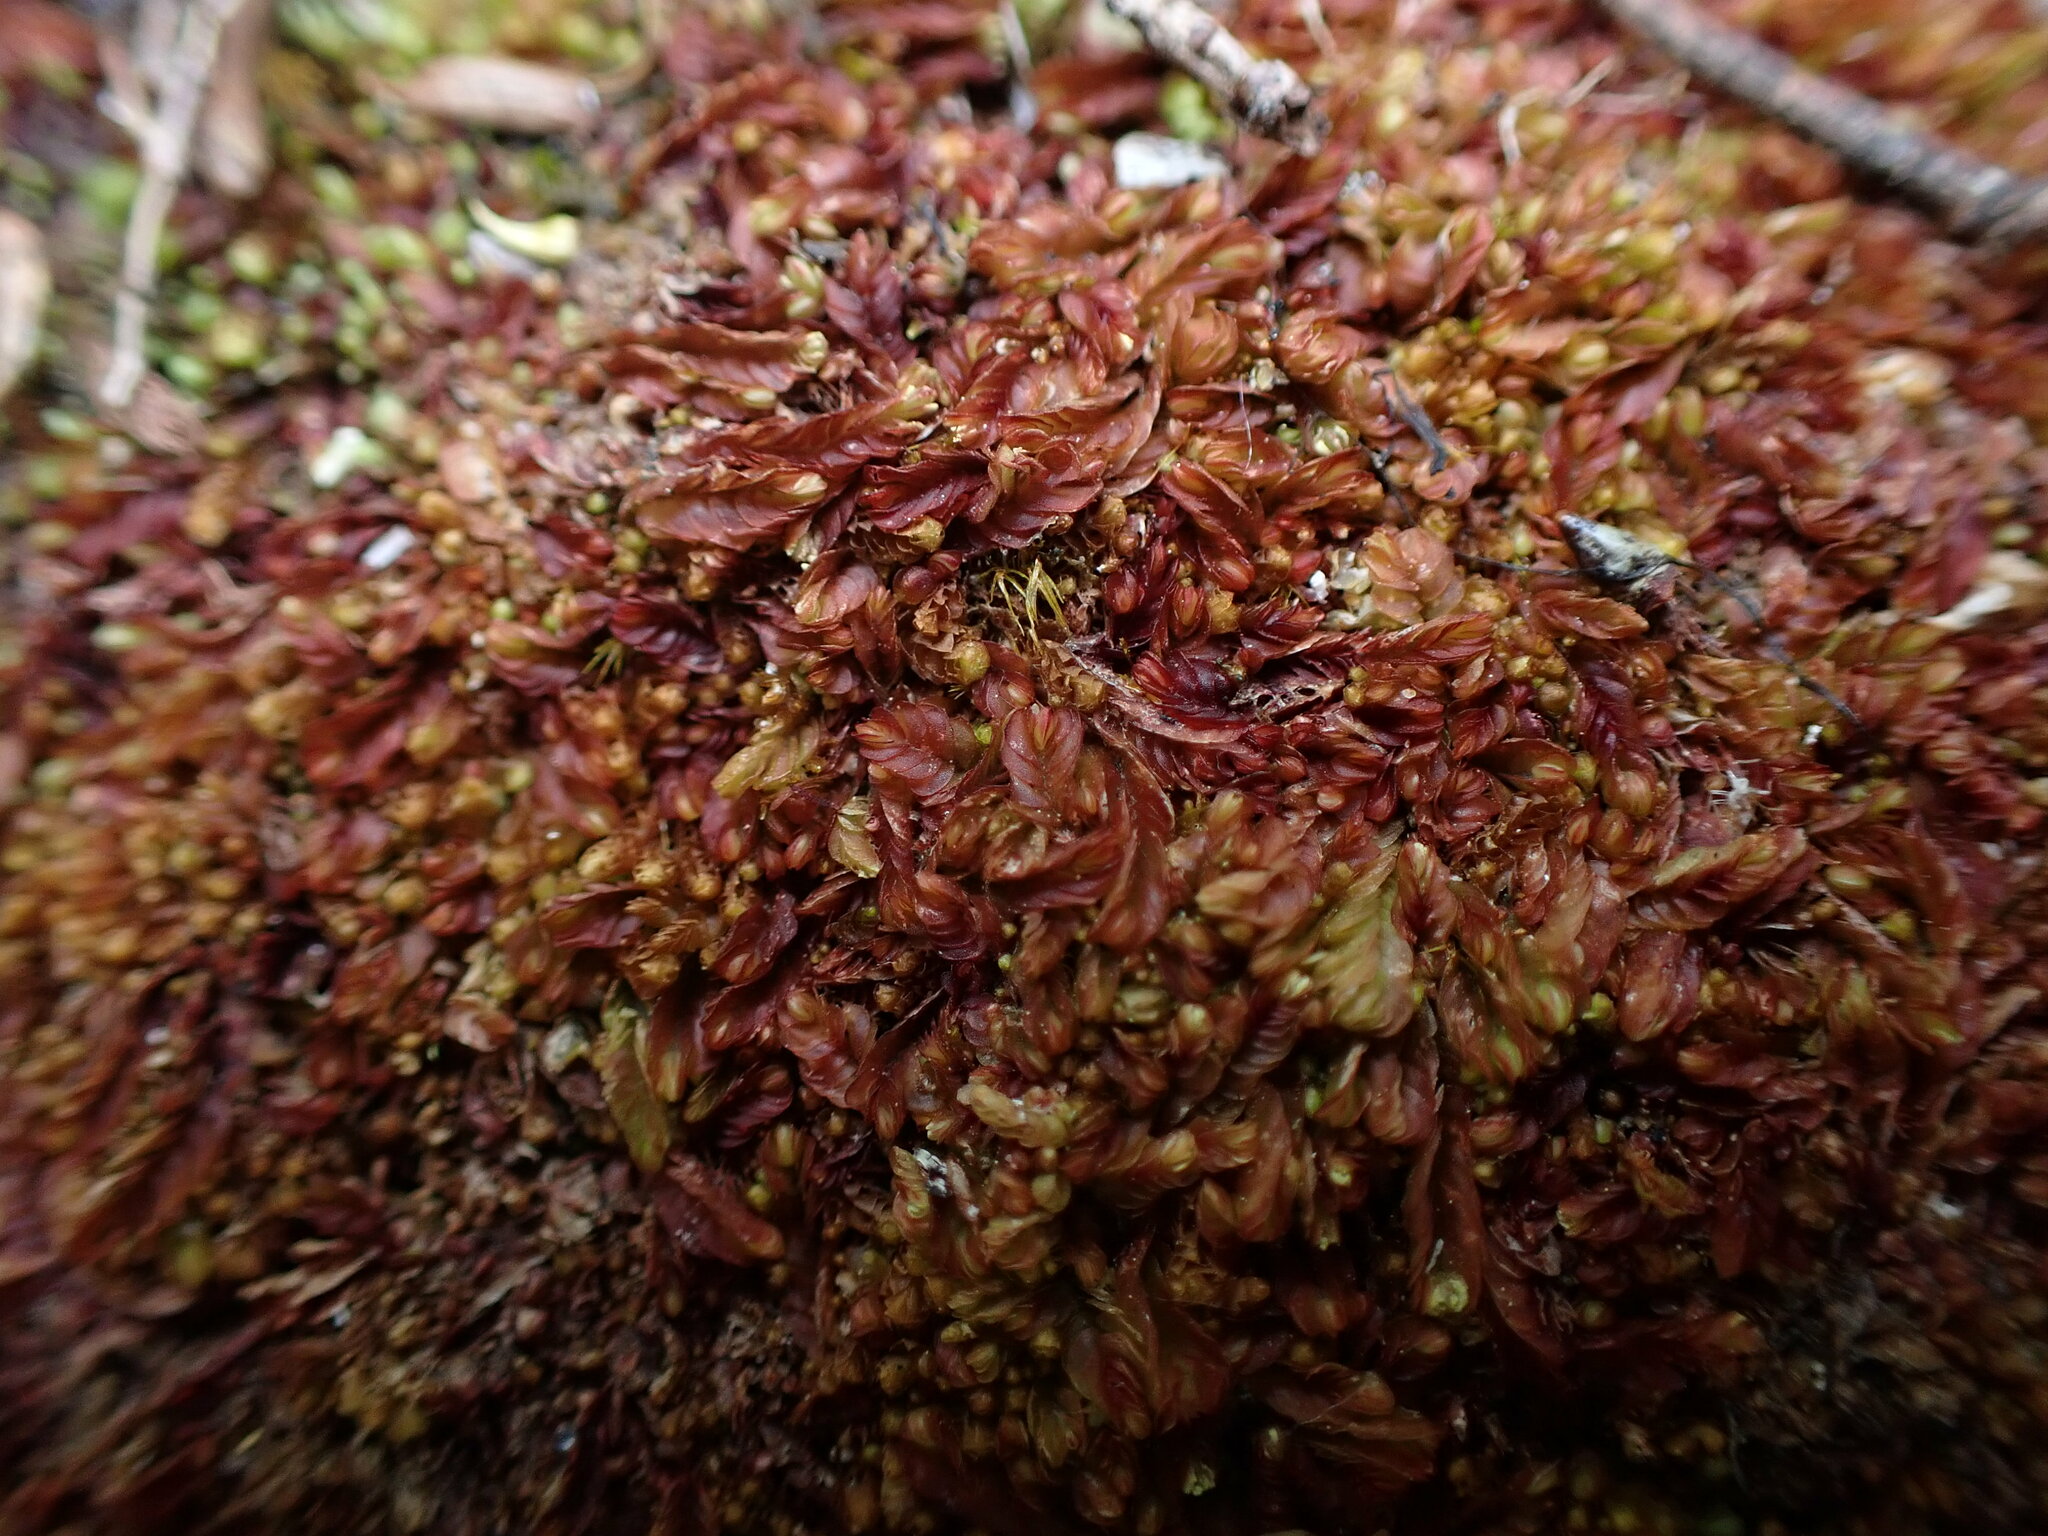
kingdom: Plantae
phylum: Marchantiophyta
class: Jungermanniopsida
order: Jungermanniales
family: Solenostomataceae
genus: Solenostoma
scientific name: Solenostoma rubrum
